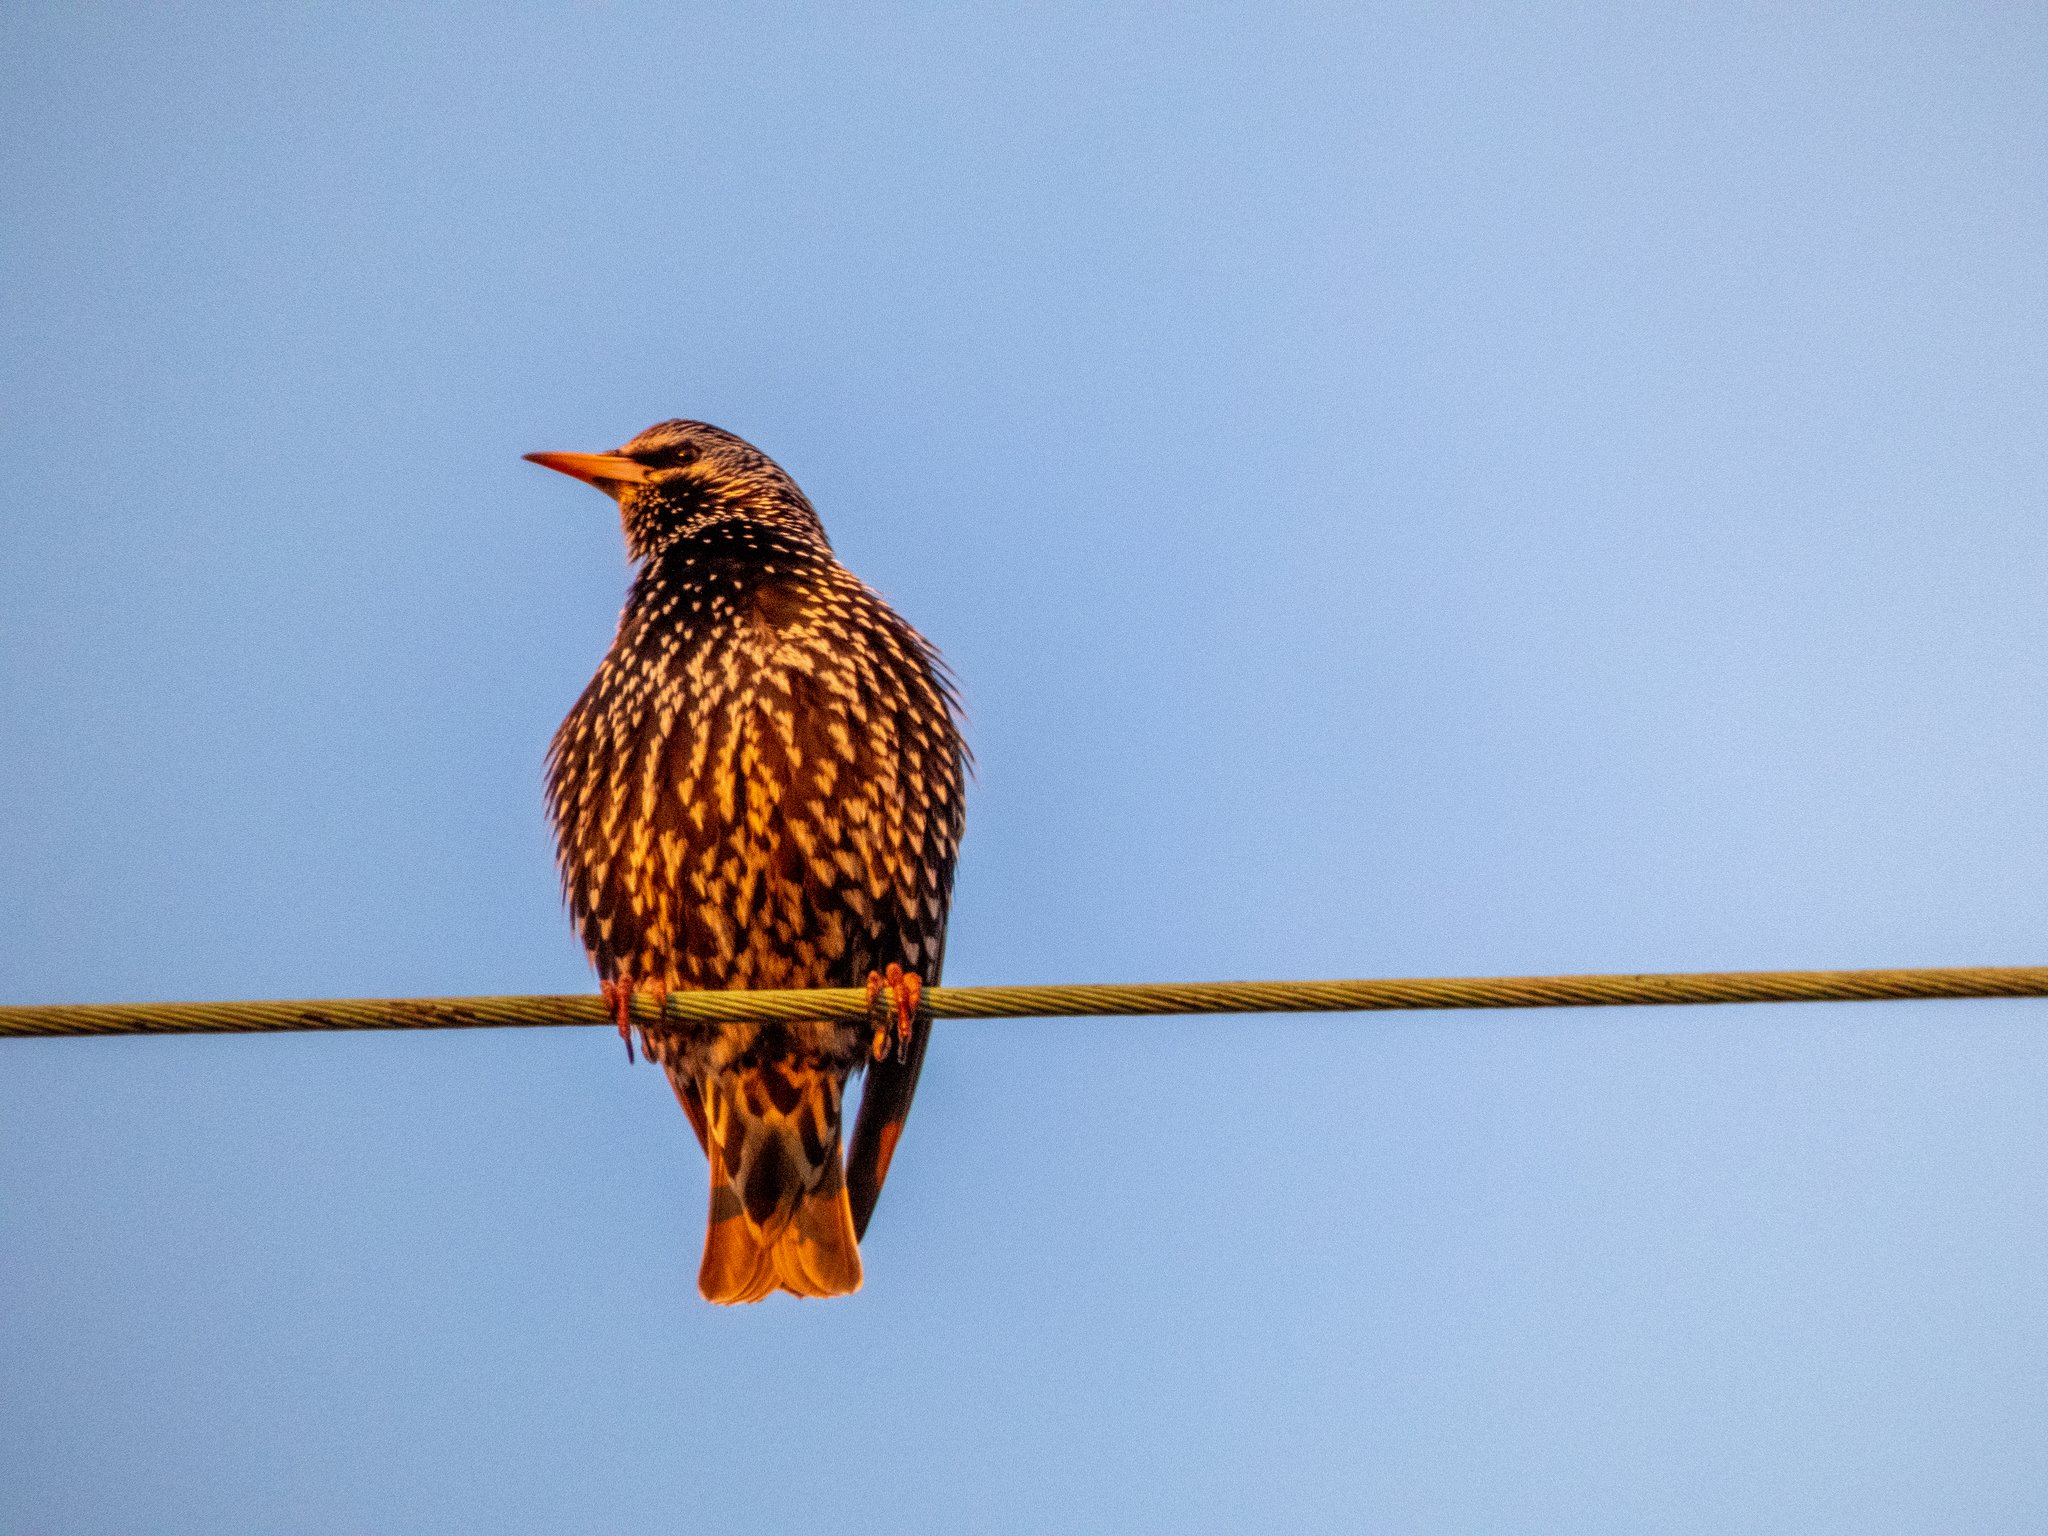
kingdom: Animalia
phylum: Chordata
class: Aves
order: Passeriformes
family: Sturnidae
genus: Sturnus
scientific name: Sturnus vulgaris
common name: Common starling
